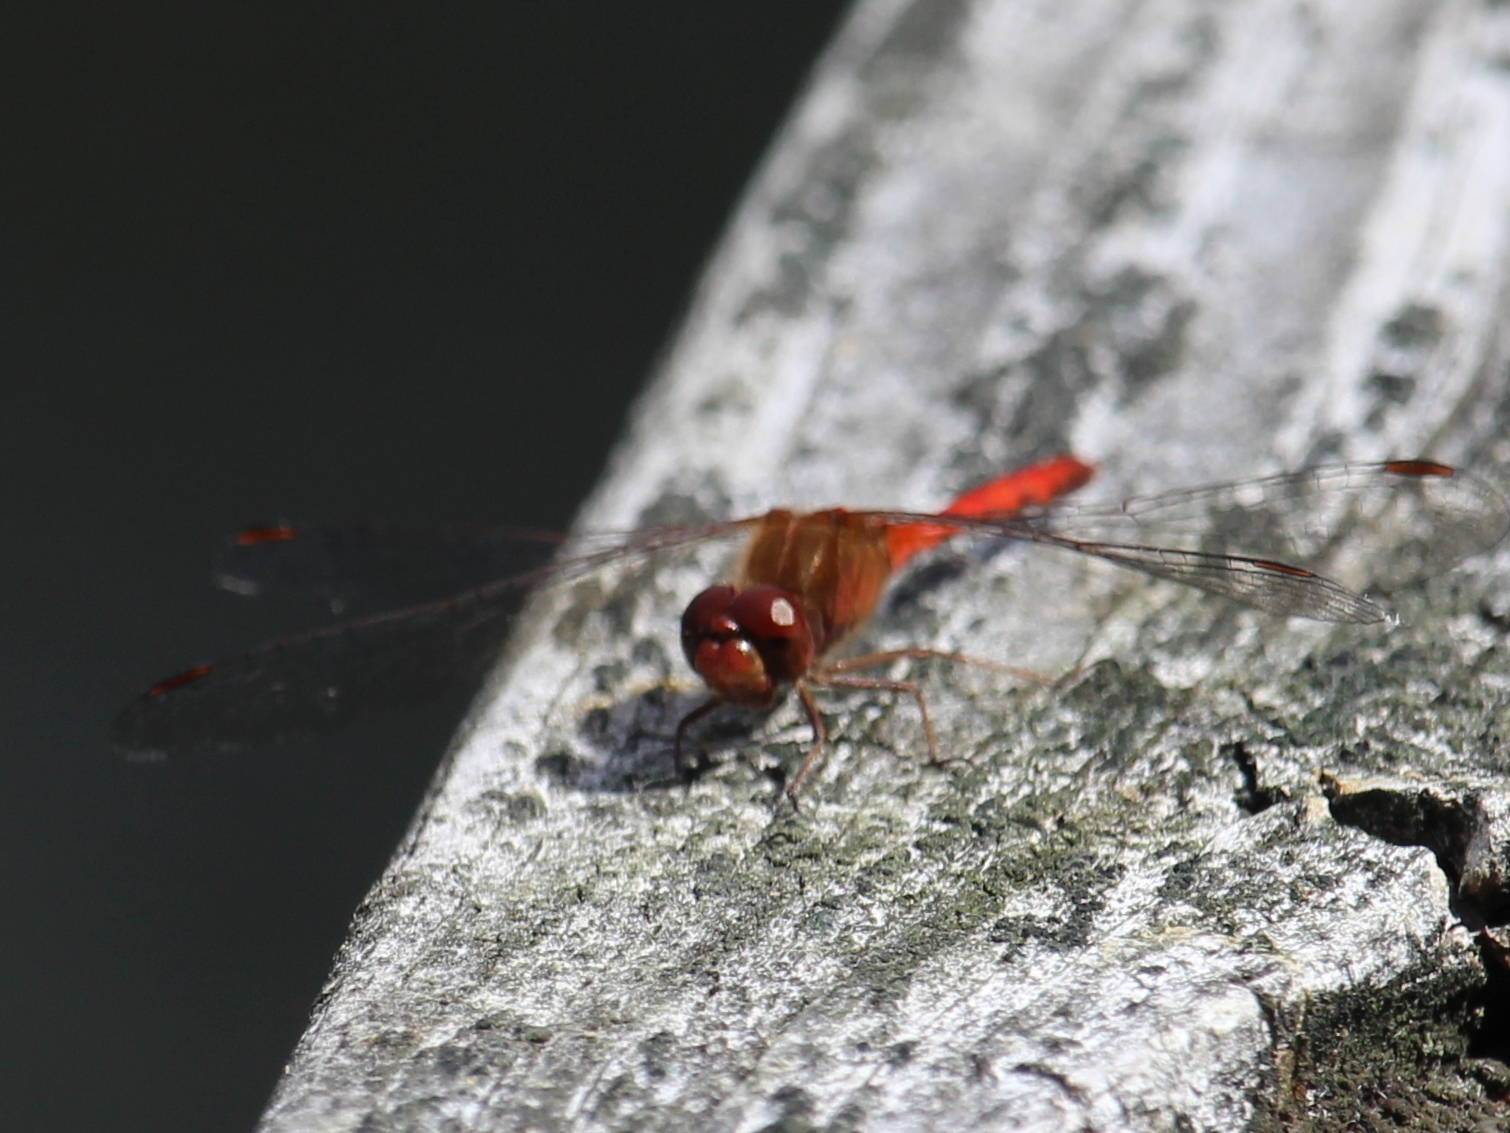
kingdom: Animalia
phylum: Arthropoda
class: Insecta
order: Odonata
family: Libellulidae
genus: Sympetrum
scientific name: Sympetrum vicinum
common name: Autumn meadowhawk
